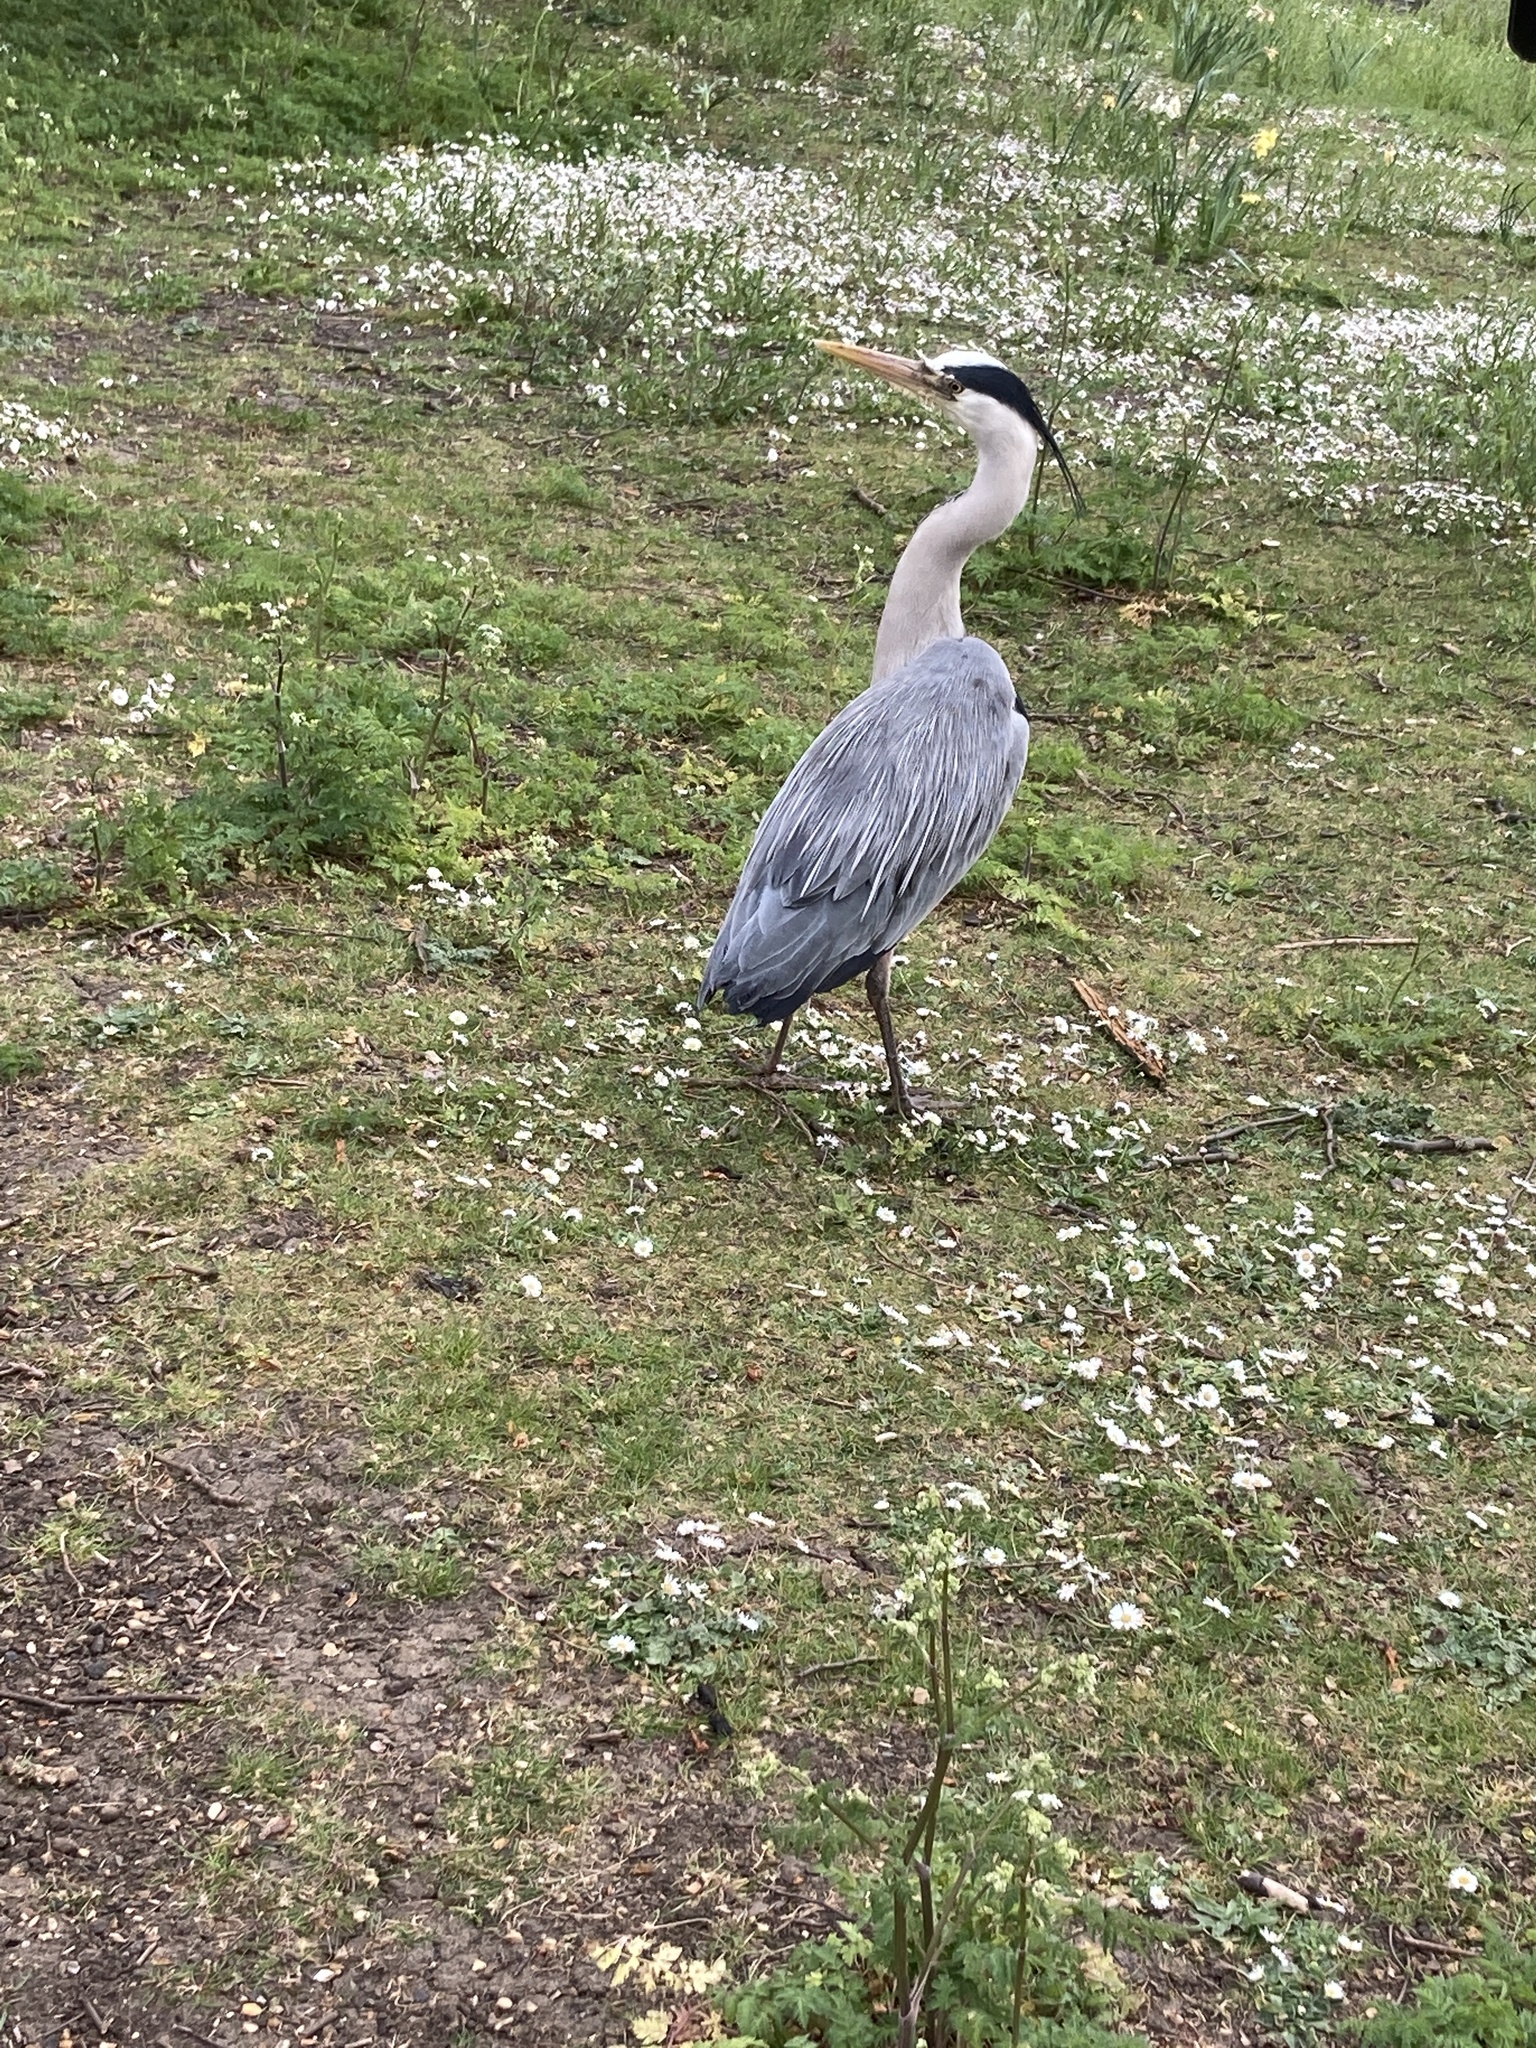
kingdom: Animalia
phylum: Chordata
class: Aves
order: Pelecaniformes
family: Ardeidae
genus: Ardea
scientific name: Ardea cinerea
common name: Grey heron
